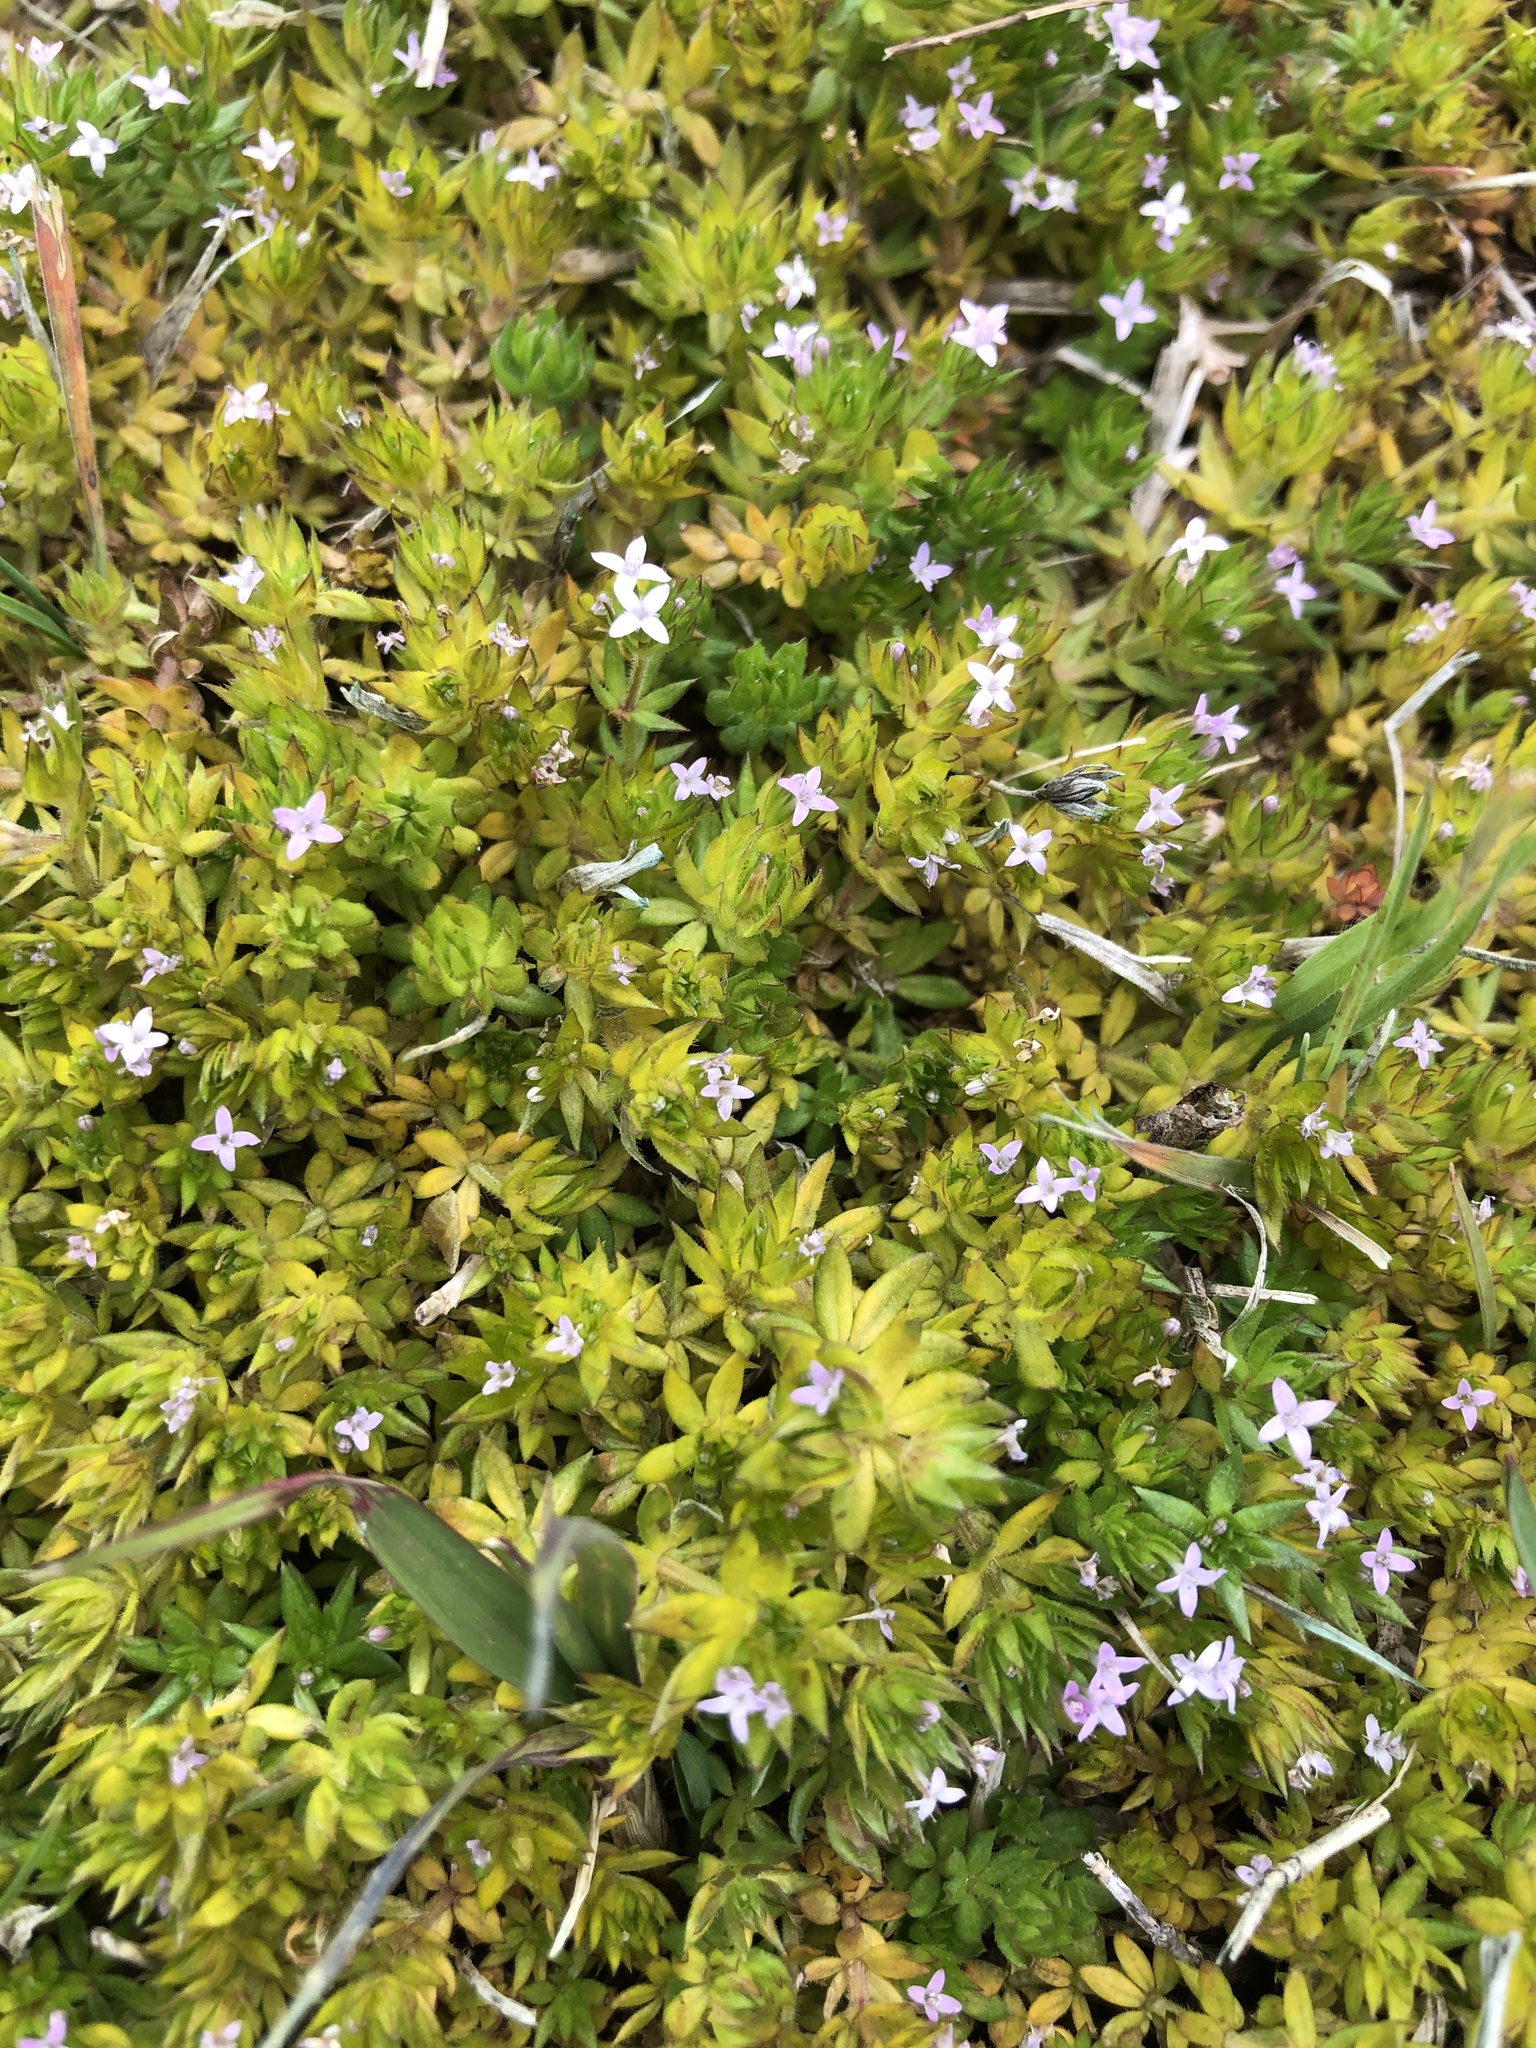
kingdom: Plantae
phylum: Tracheophyta
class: Magnoliopsida
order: Gentianales
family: Rubiaceae
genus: Sherardia
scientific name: Sherardia arvensis
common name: Field madder
